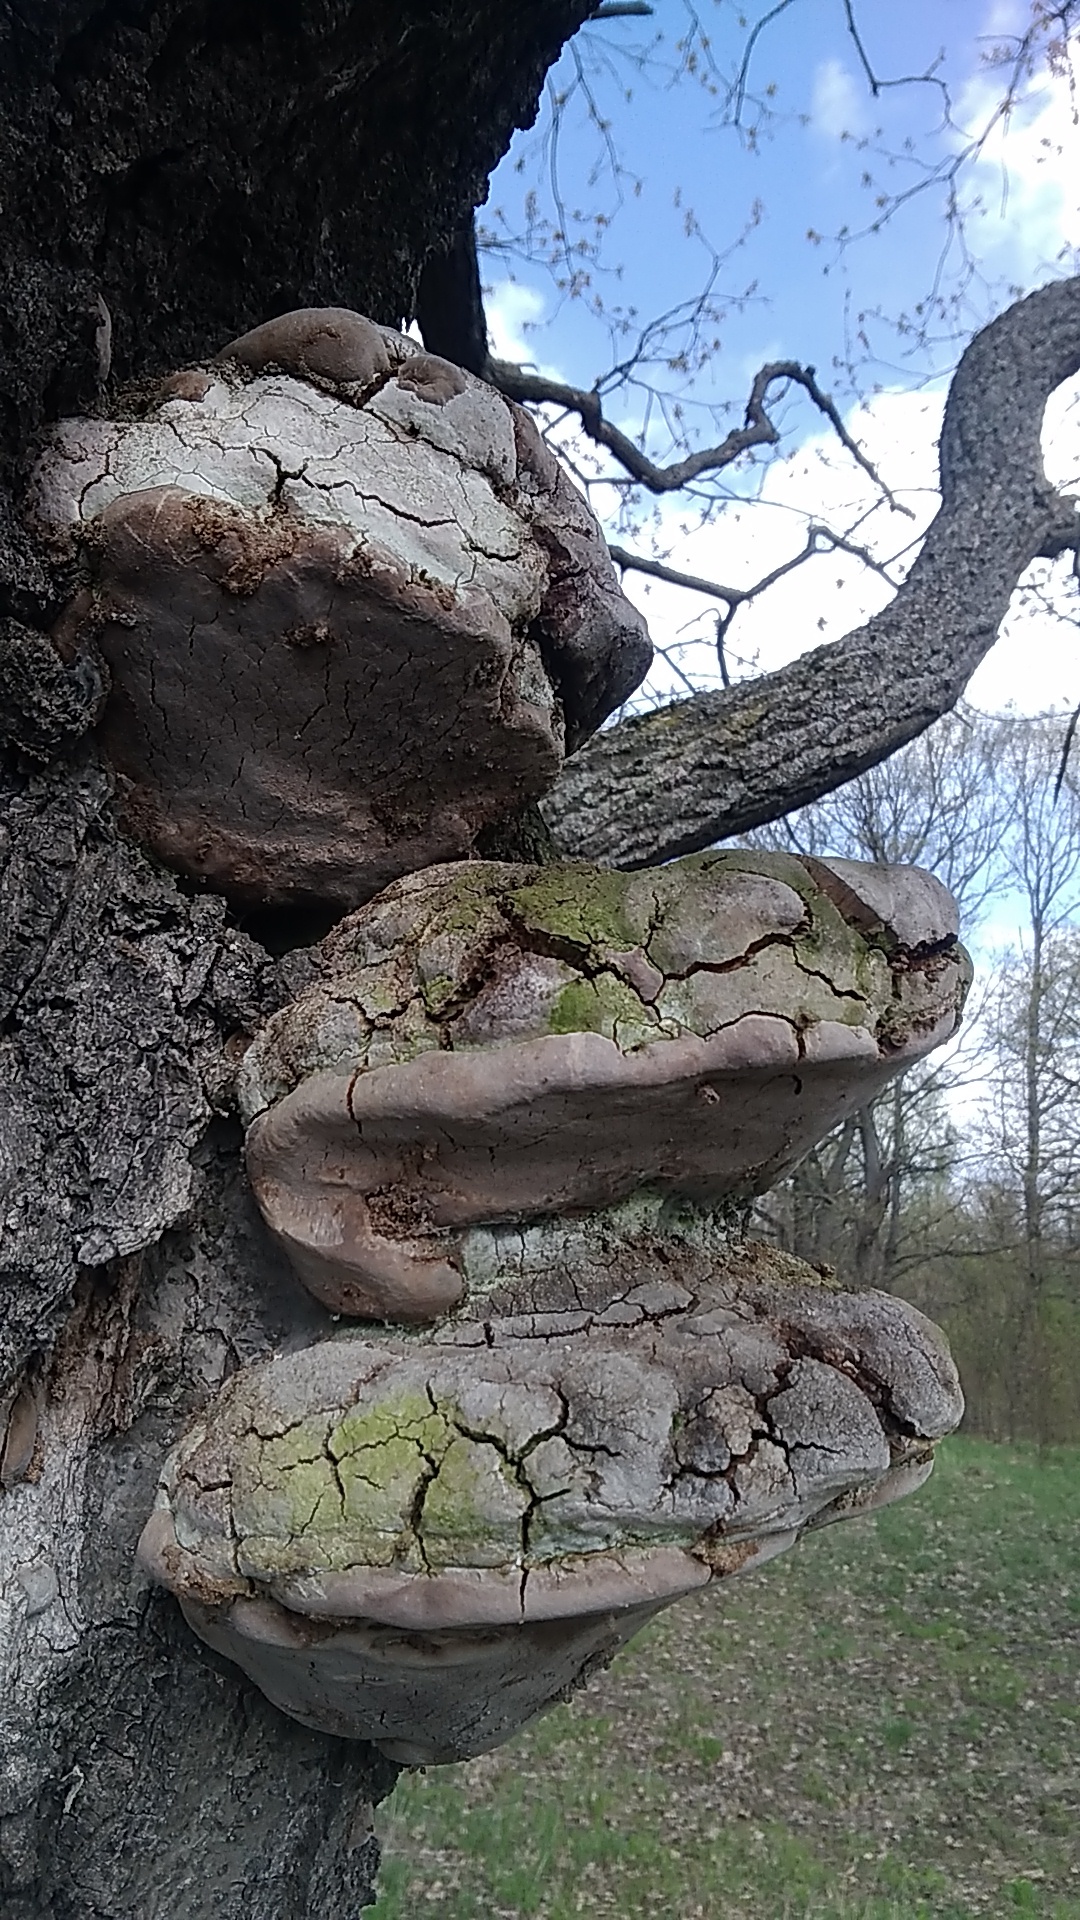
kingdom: Fungi
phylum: Basidiomycota
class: Agaricomycetes
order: Hymenochaetales
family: Hymenochaetaceae
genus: Fomitiporia
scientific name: Fomitiporia robusta
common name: Robust bracket
